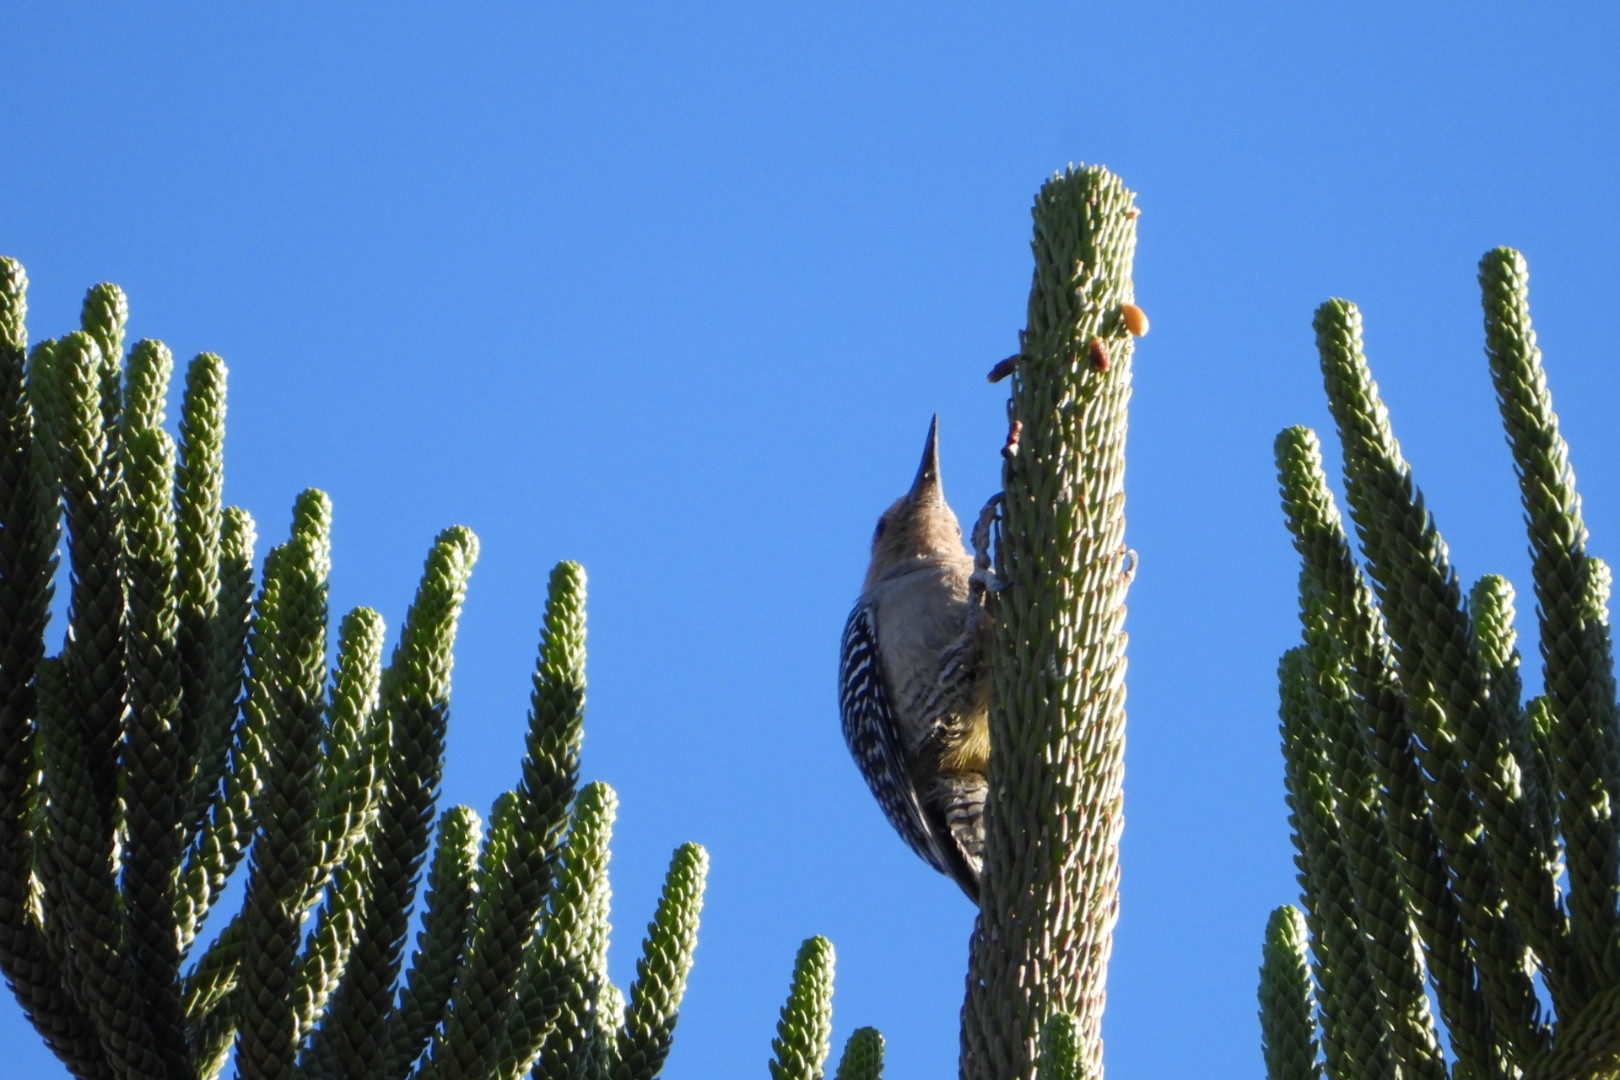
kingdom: Animalia
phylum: Chordata
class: Aves
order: Piciformes
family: Picidae
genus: Melanerpes
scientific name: Melanerpes uropygialis
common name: Gila woodpecker
